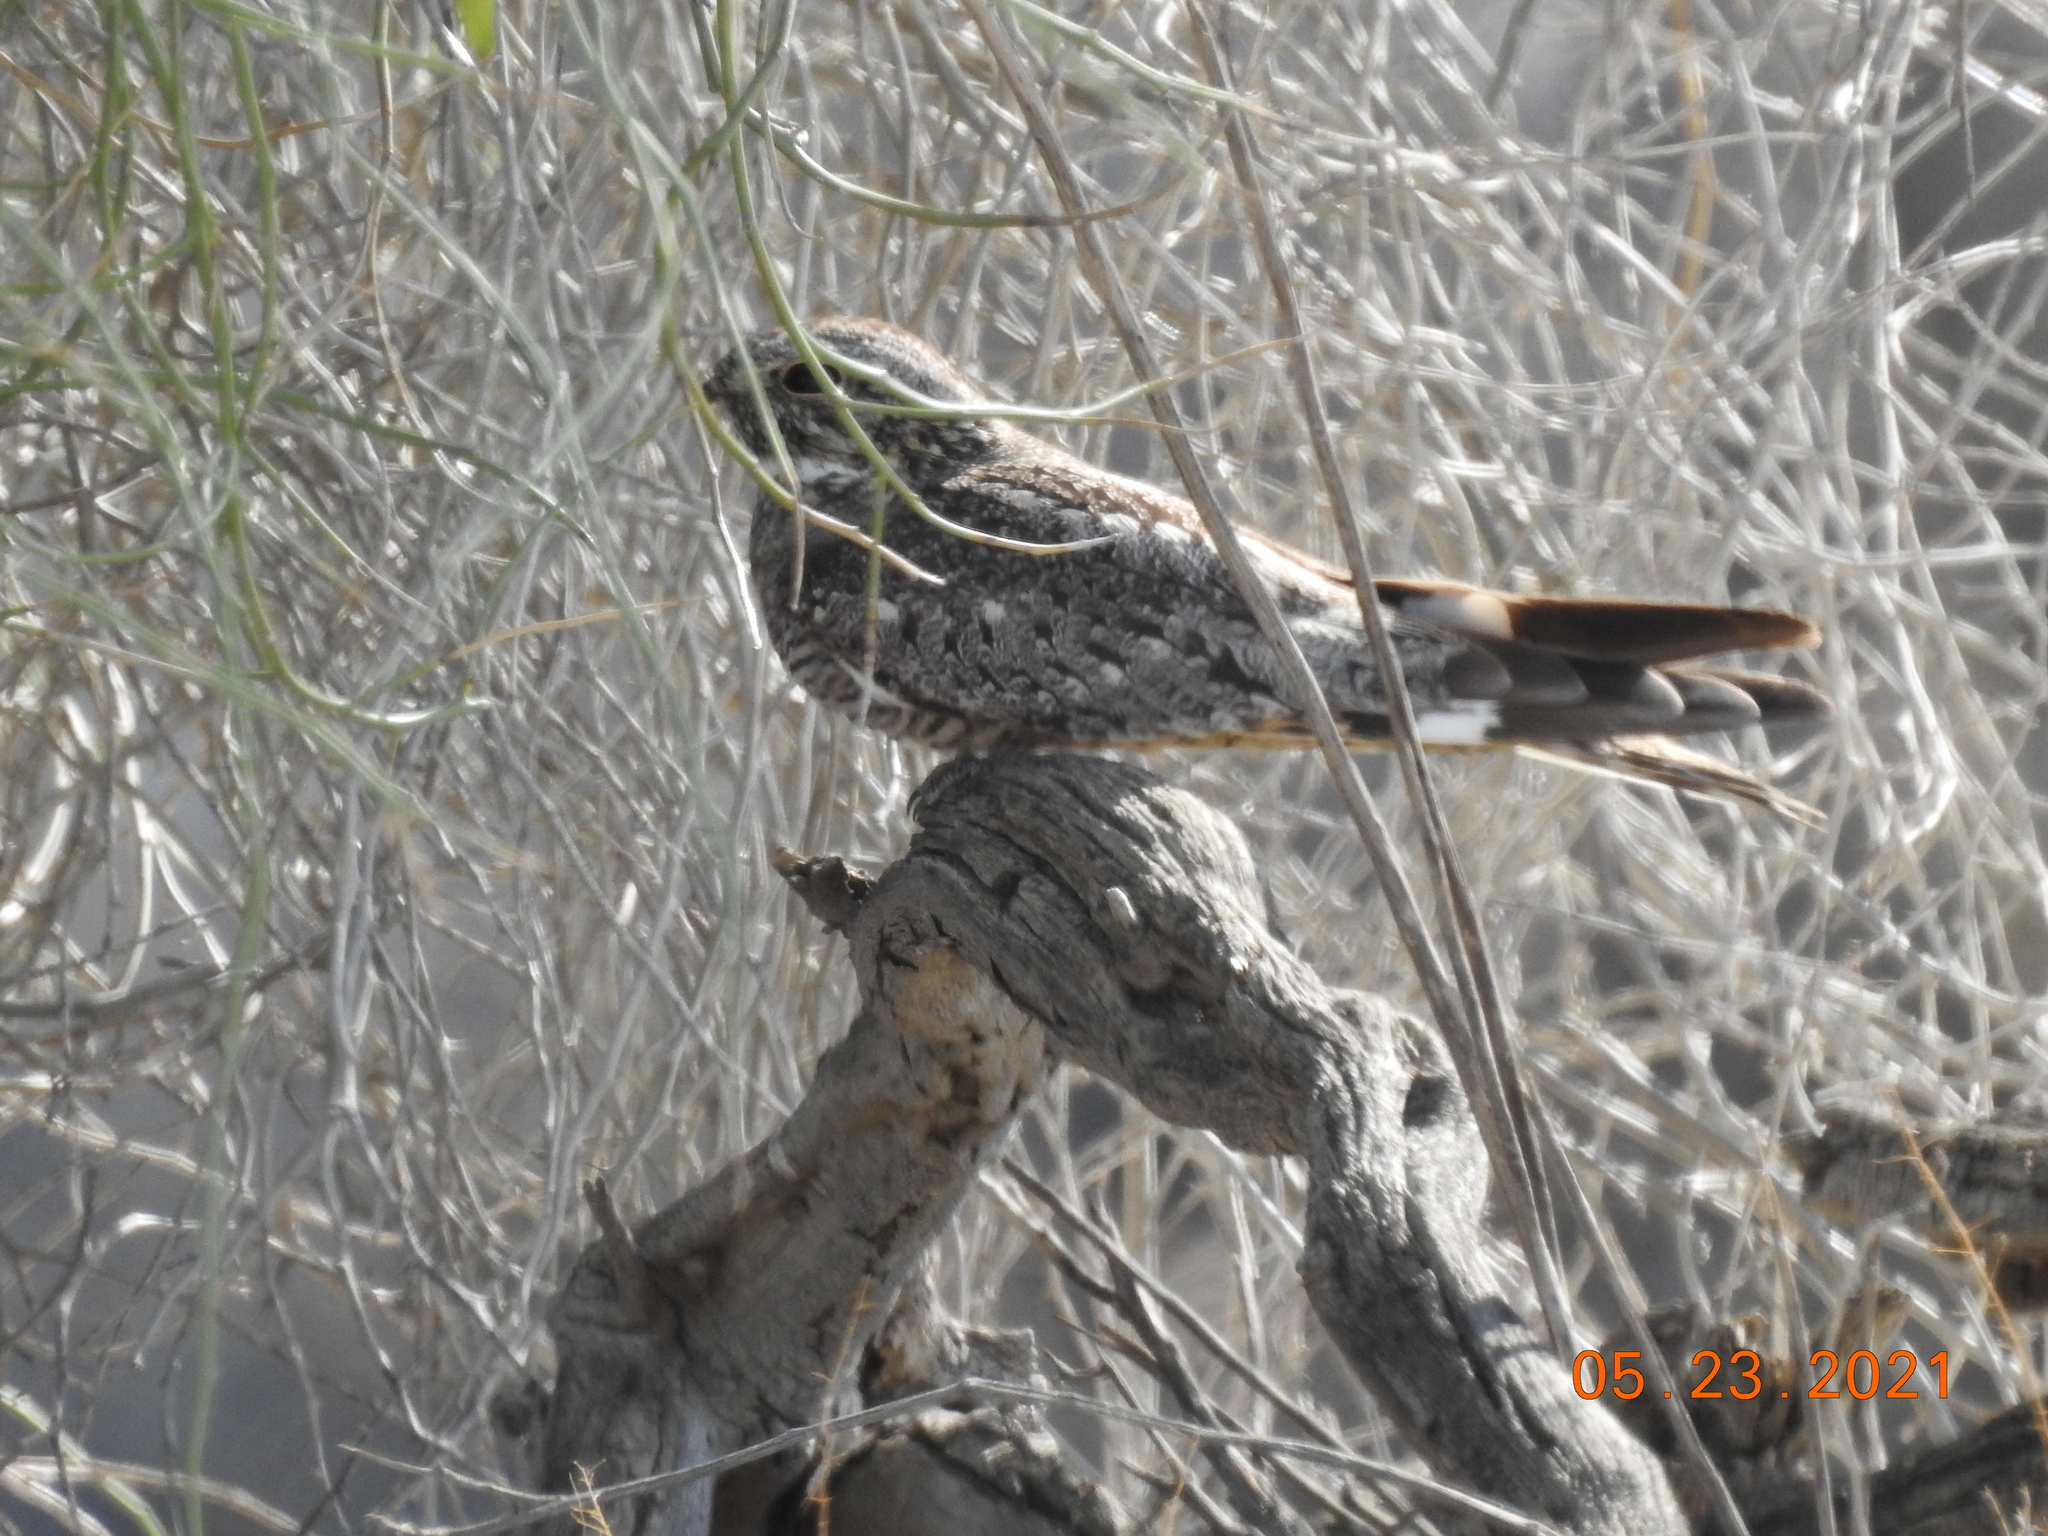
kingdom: Animalia
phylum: Chordata
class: Aves
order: Caprimulgiformes
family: Caprimulgidae
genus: Chordeiles
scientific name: Chordeiles acutipennis
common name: Lesser nighthawk
